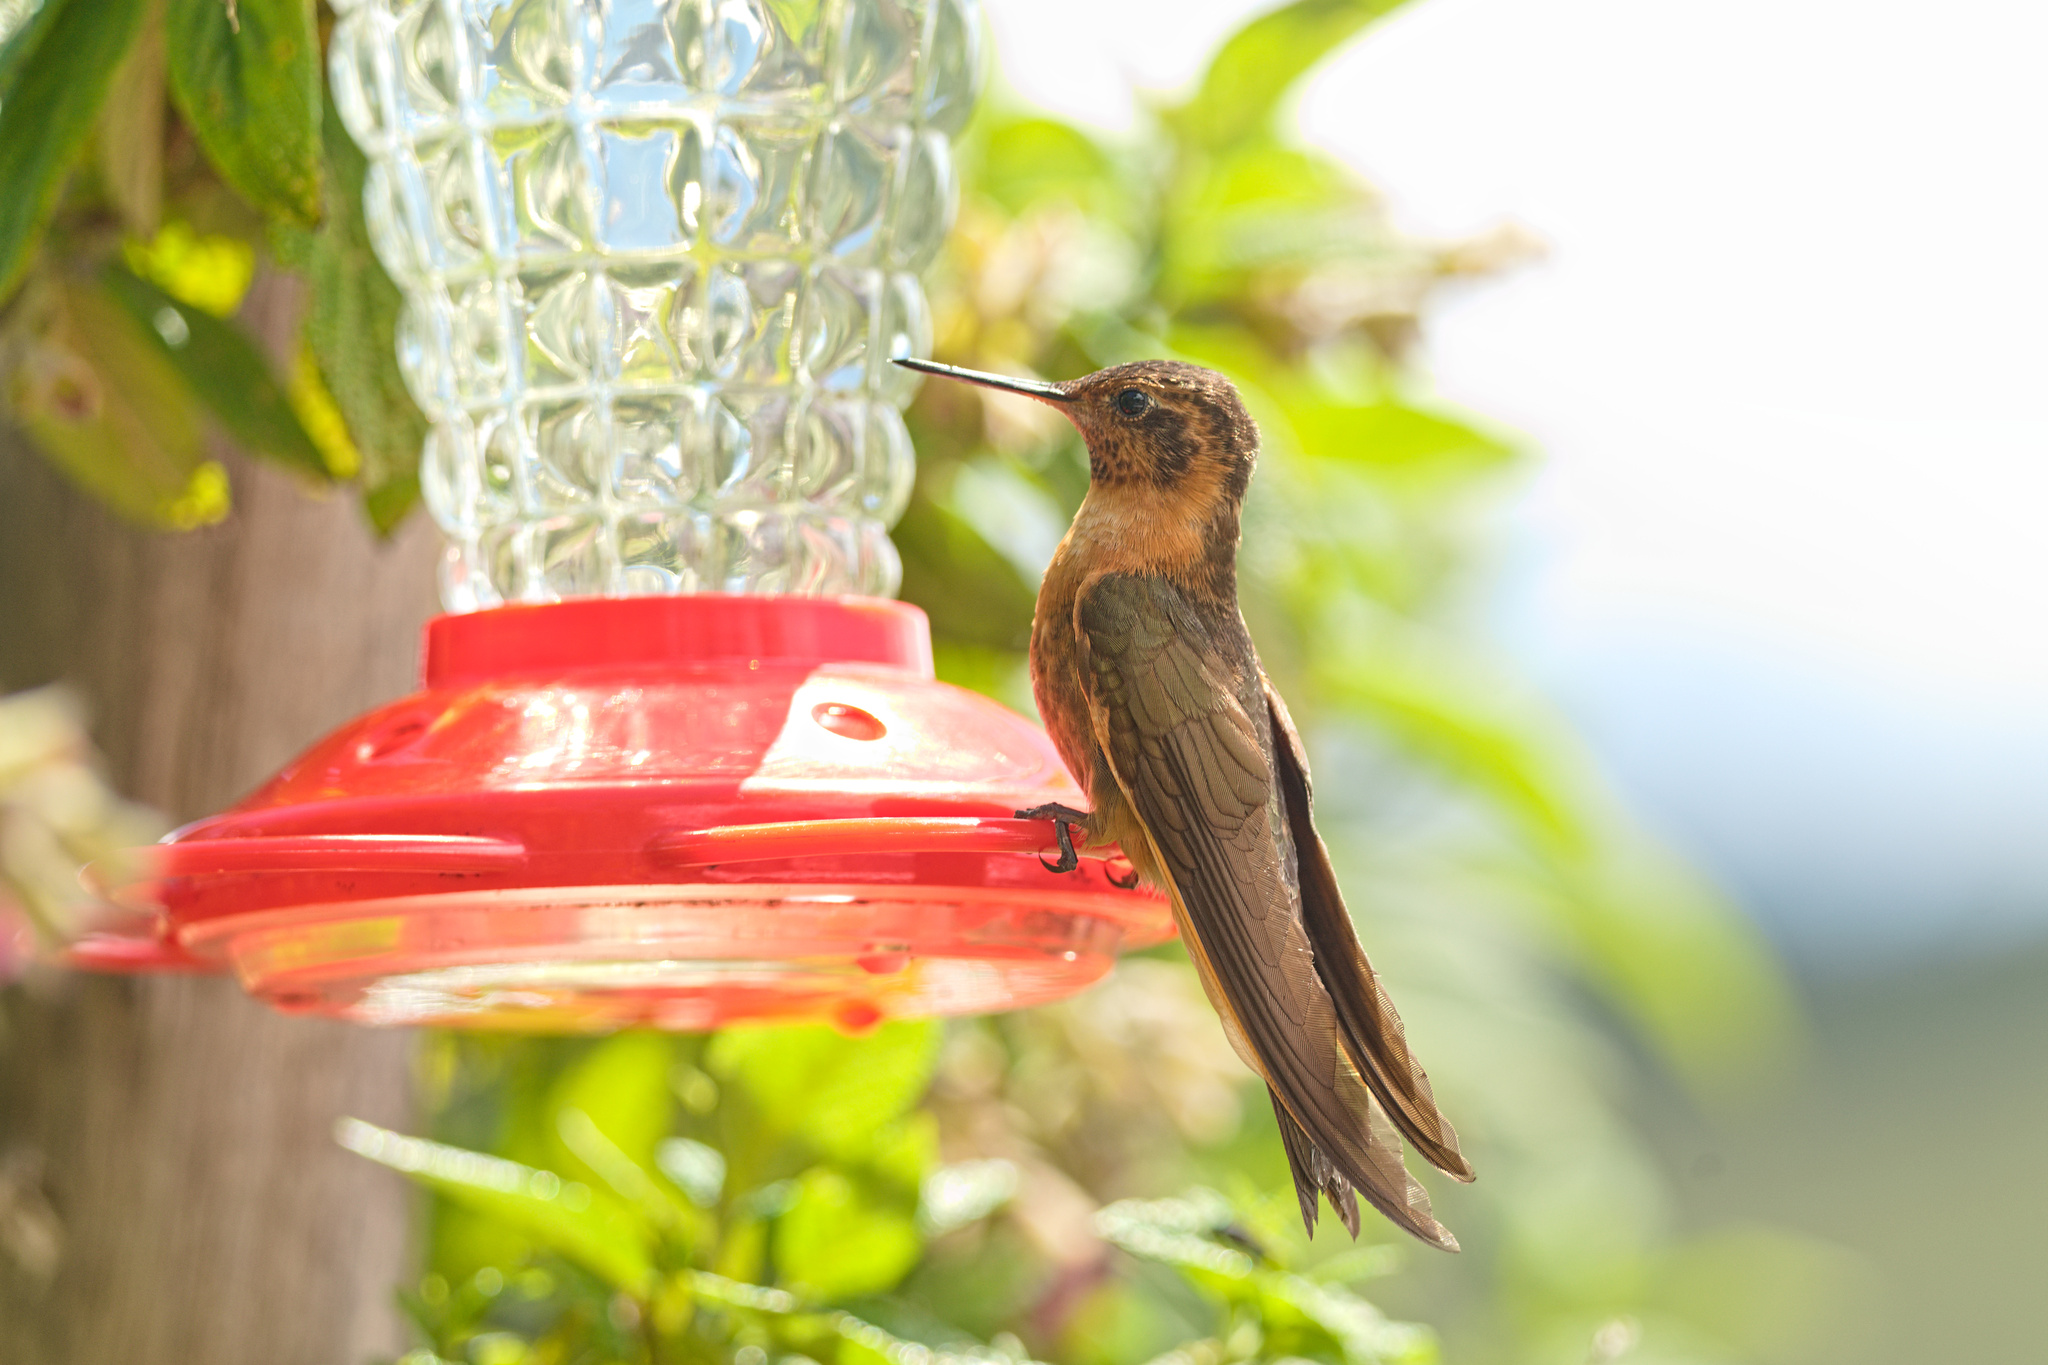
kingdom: Animalia
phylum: Chordata
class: Aves
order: Apodiformes
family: Trochilidae
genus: Aglaeactis
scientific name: Aglaeactis cupripennis
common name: Shining sunbeam
